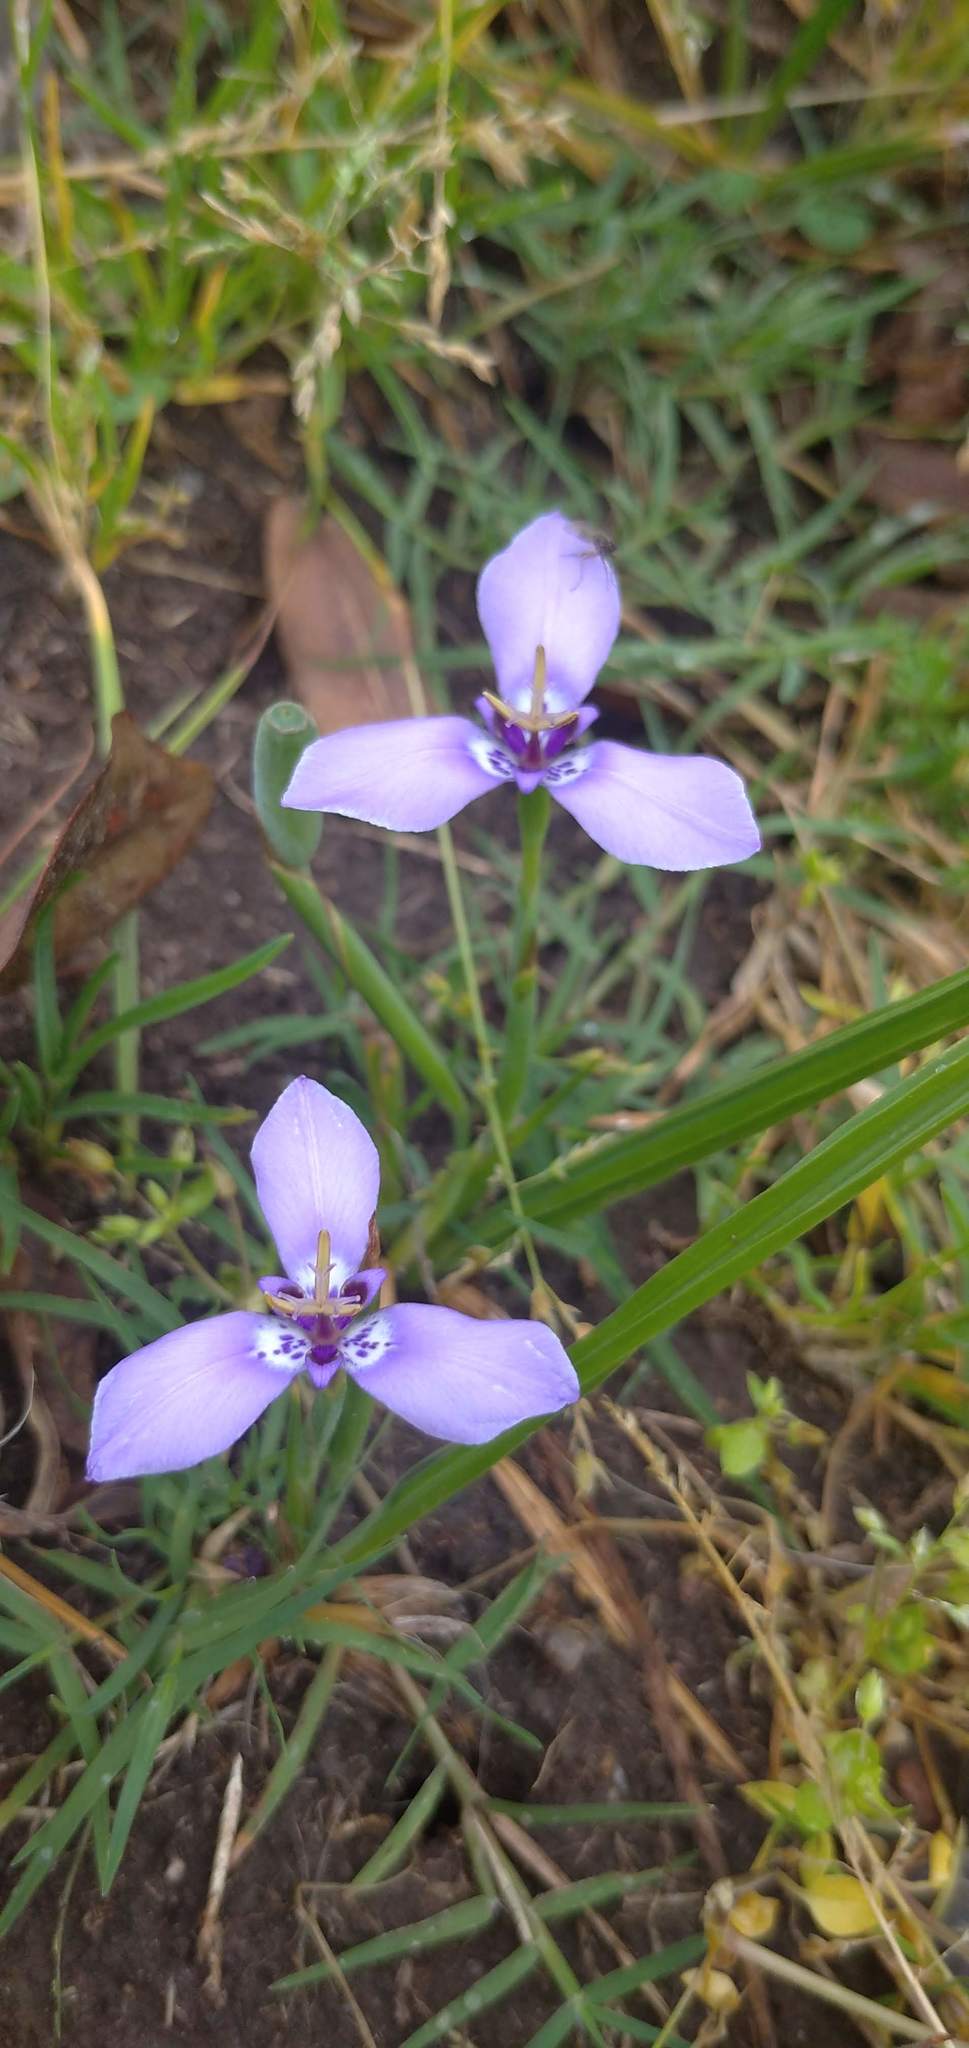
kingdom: Plantae
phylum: Tracheophyta
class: Liliopsida
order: Asparagales
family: Iridaceae
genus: Herbertia
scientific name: Herbertia lahue
